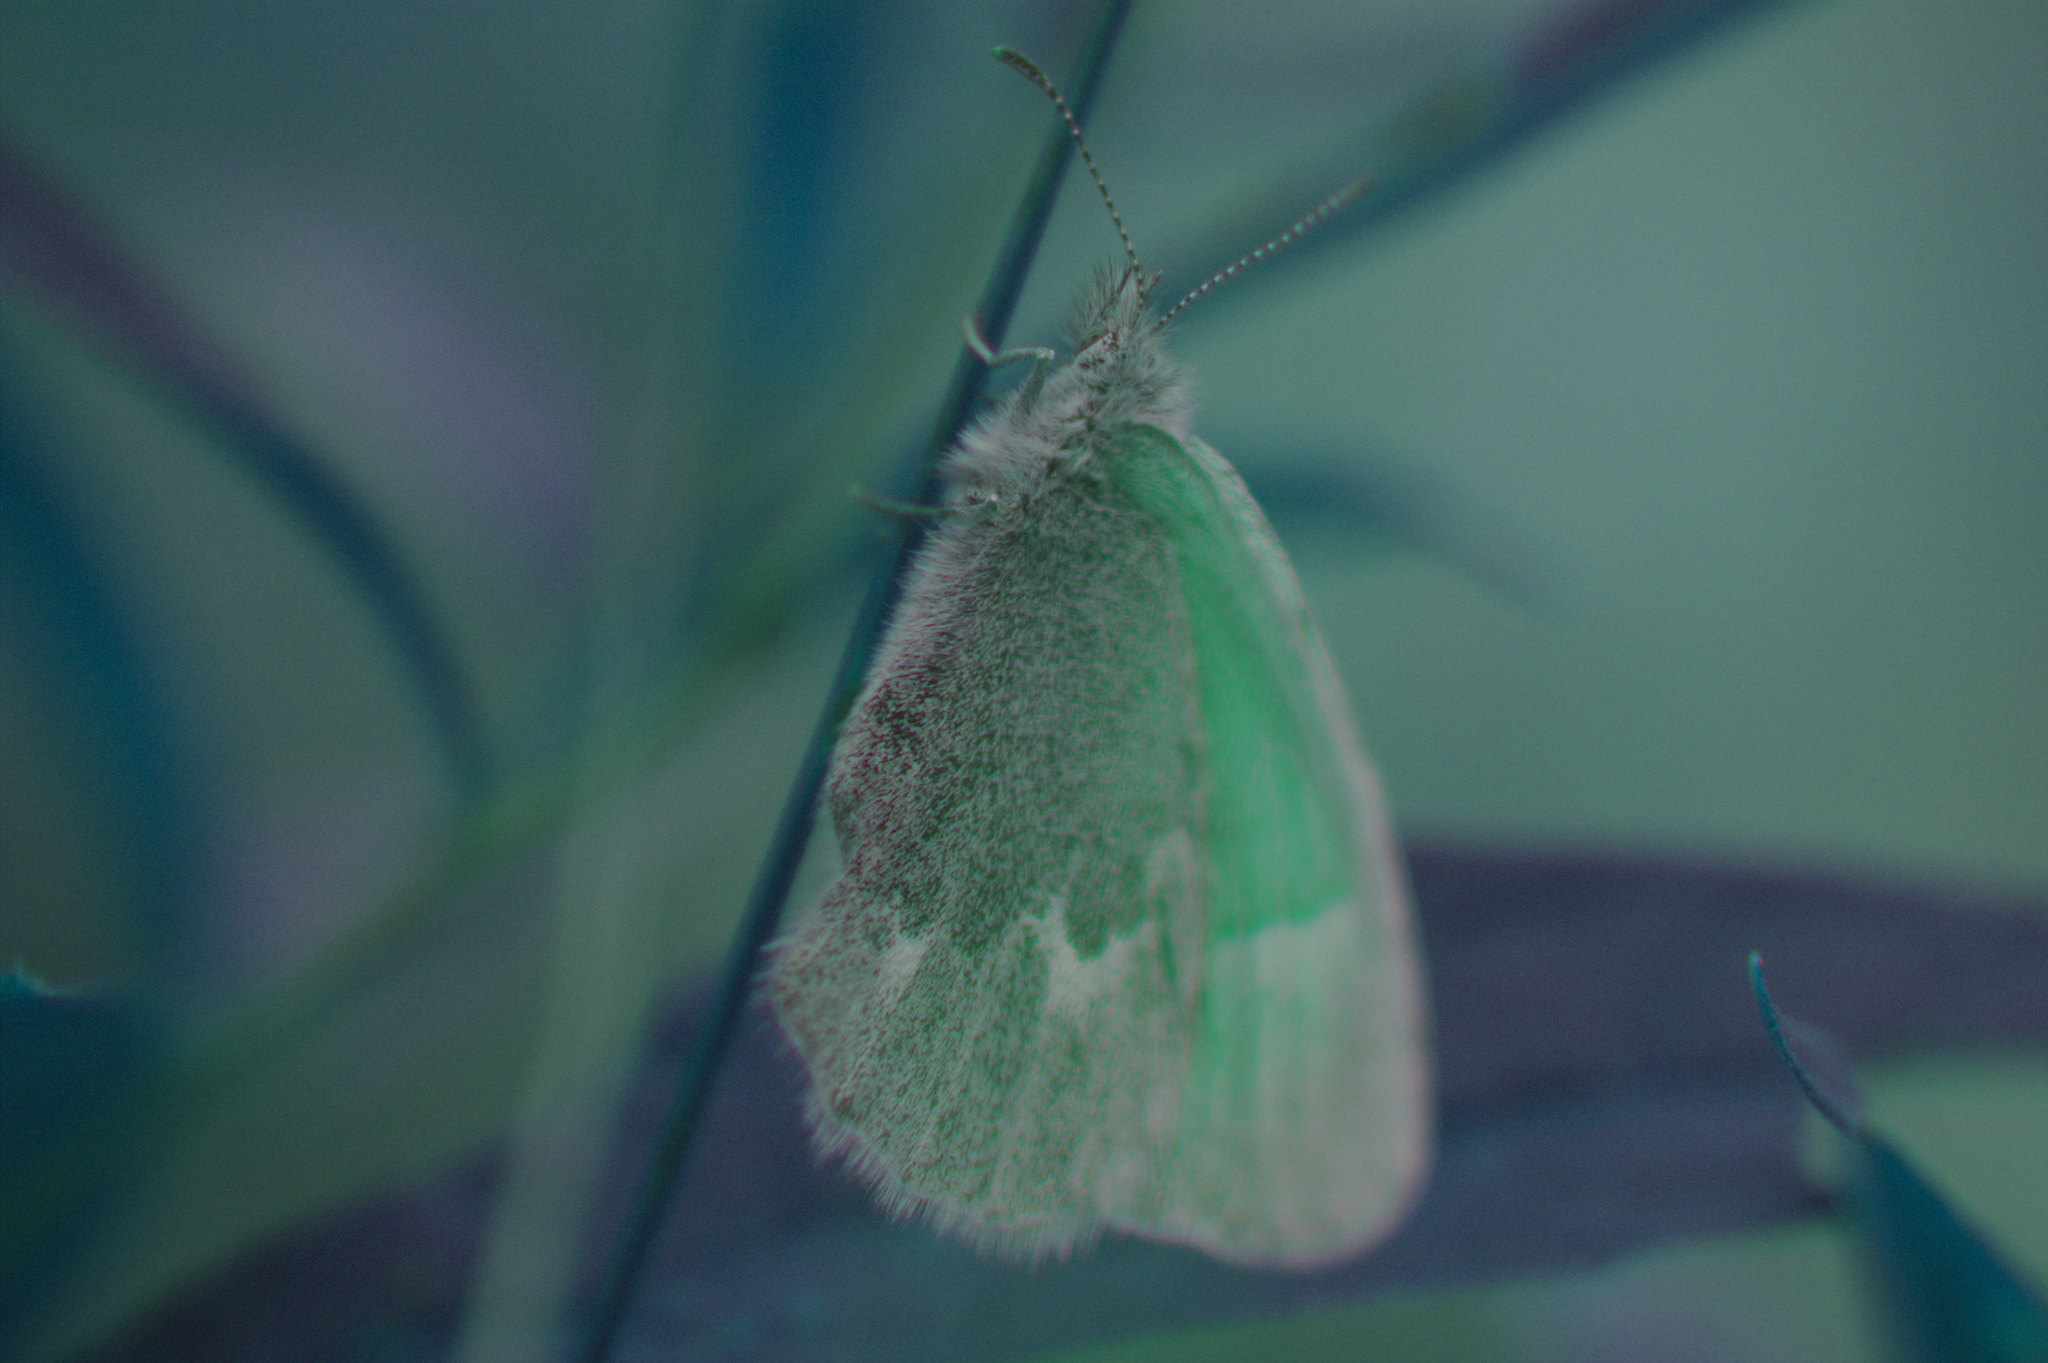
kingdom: Animalia
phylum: Arthropoda
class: Insecta
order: Lepidoptera
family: Nymphalidae
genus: Coenonympha
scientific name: Coenonympha california
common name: Common ringlet
